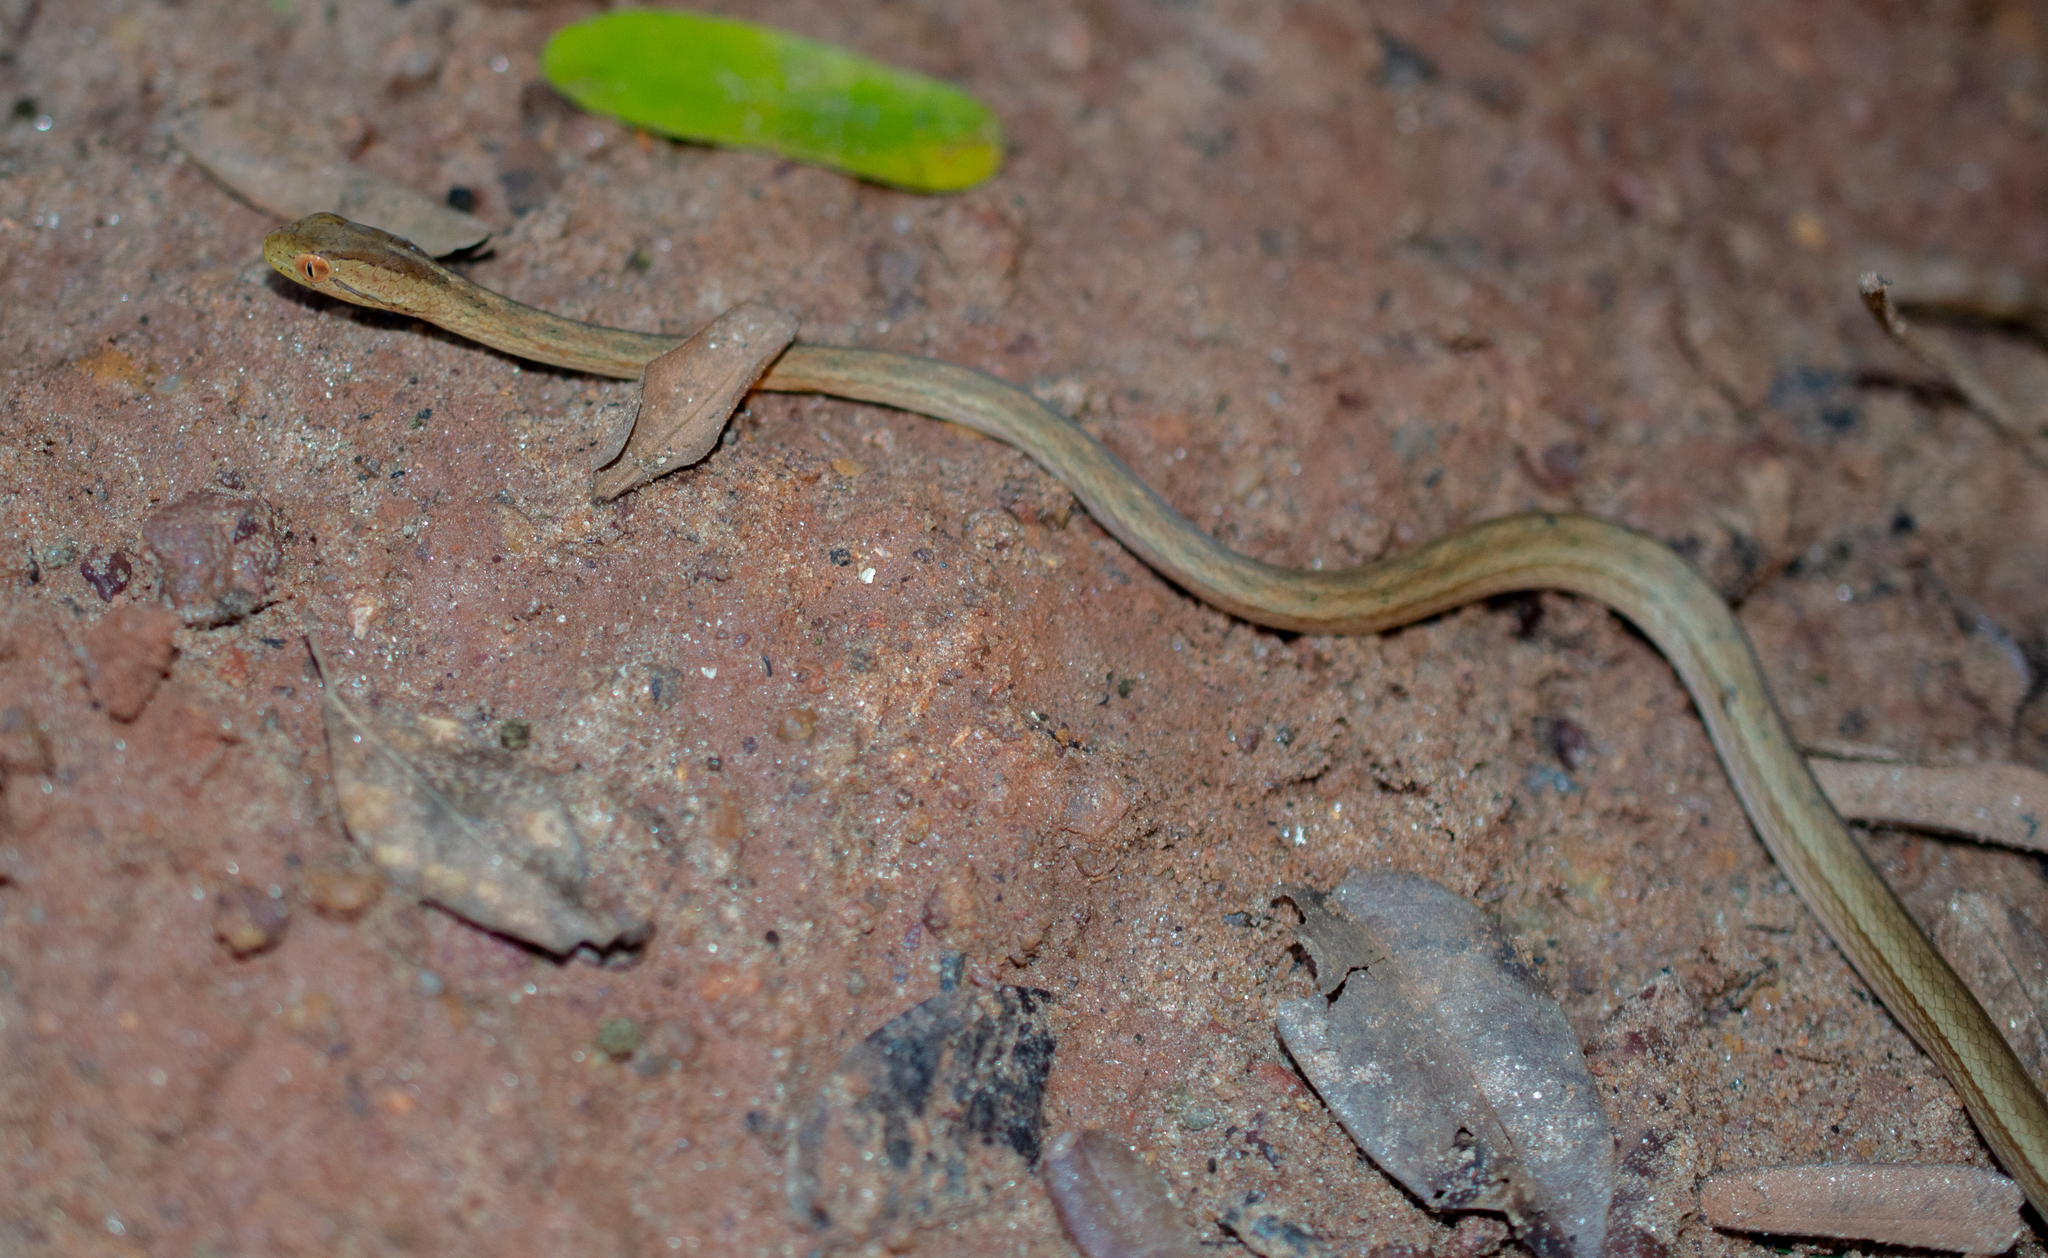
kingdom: Animalia
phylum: Chordata
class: Squamata
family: Colubridae
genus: Dryophylax
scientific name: Dryophylax
